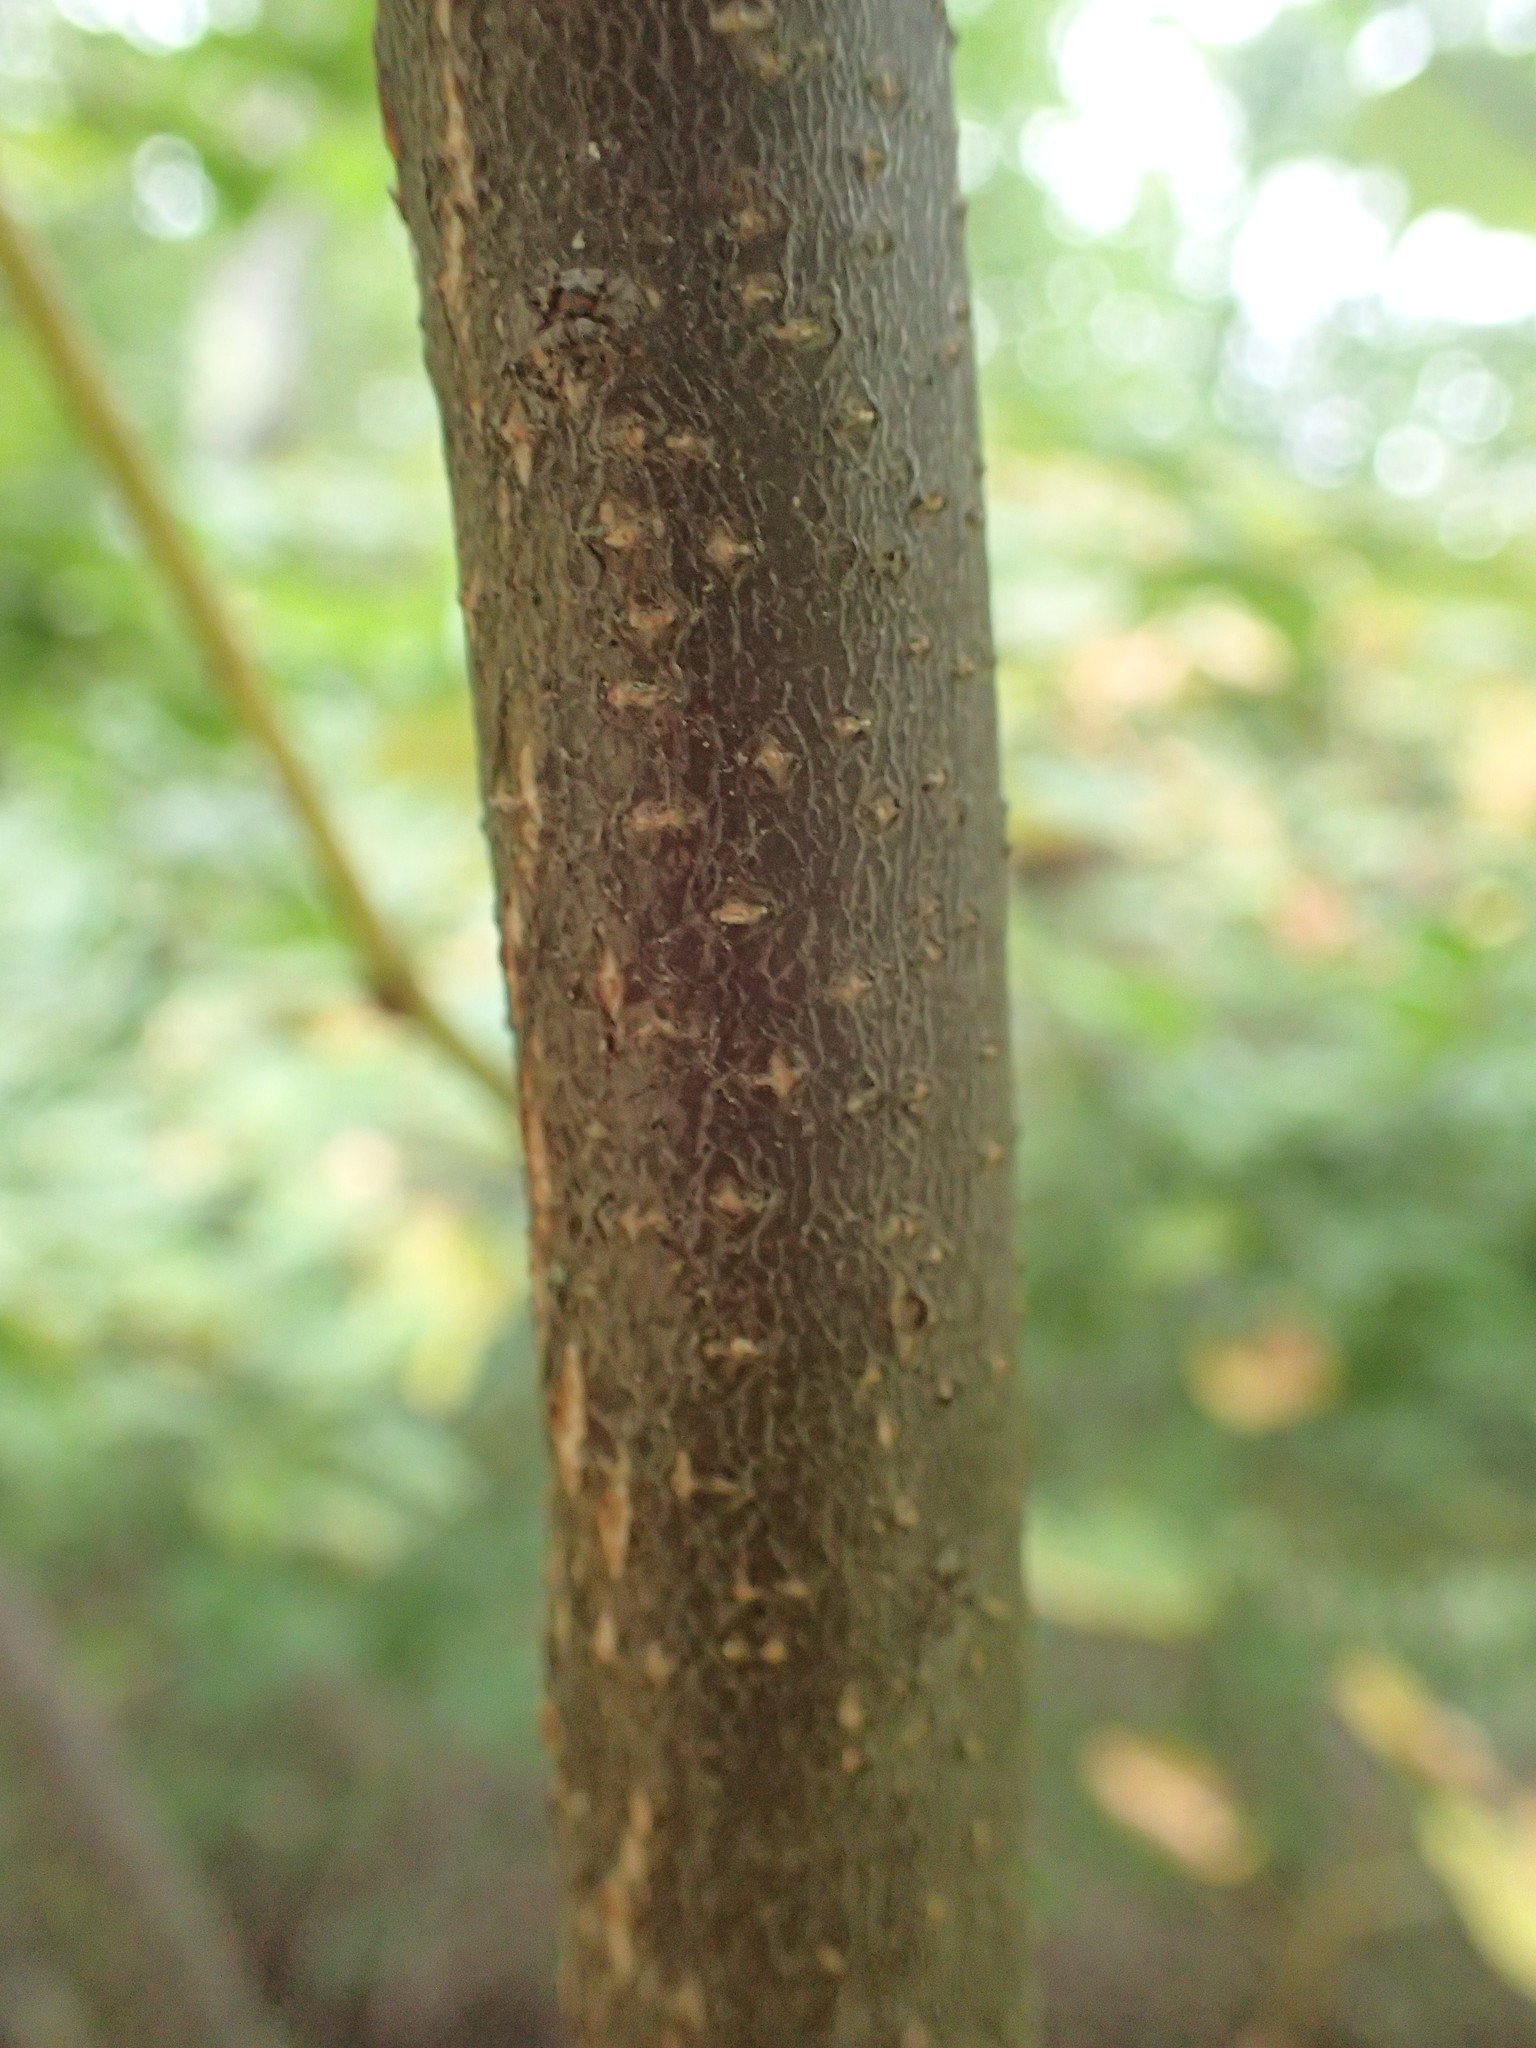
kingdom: Plantae
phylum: Tracheophyta
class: Magnoliopsida
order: Aquifoliales
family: Aquifoliaceae
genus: Ilex
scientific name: Ilex verticillata
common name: Virginia winterberry
